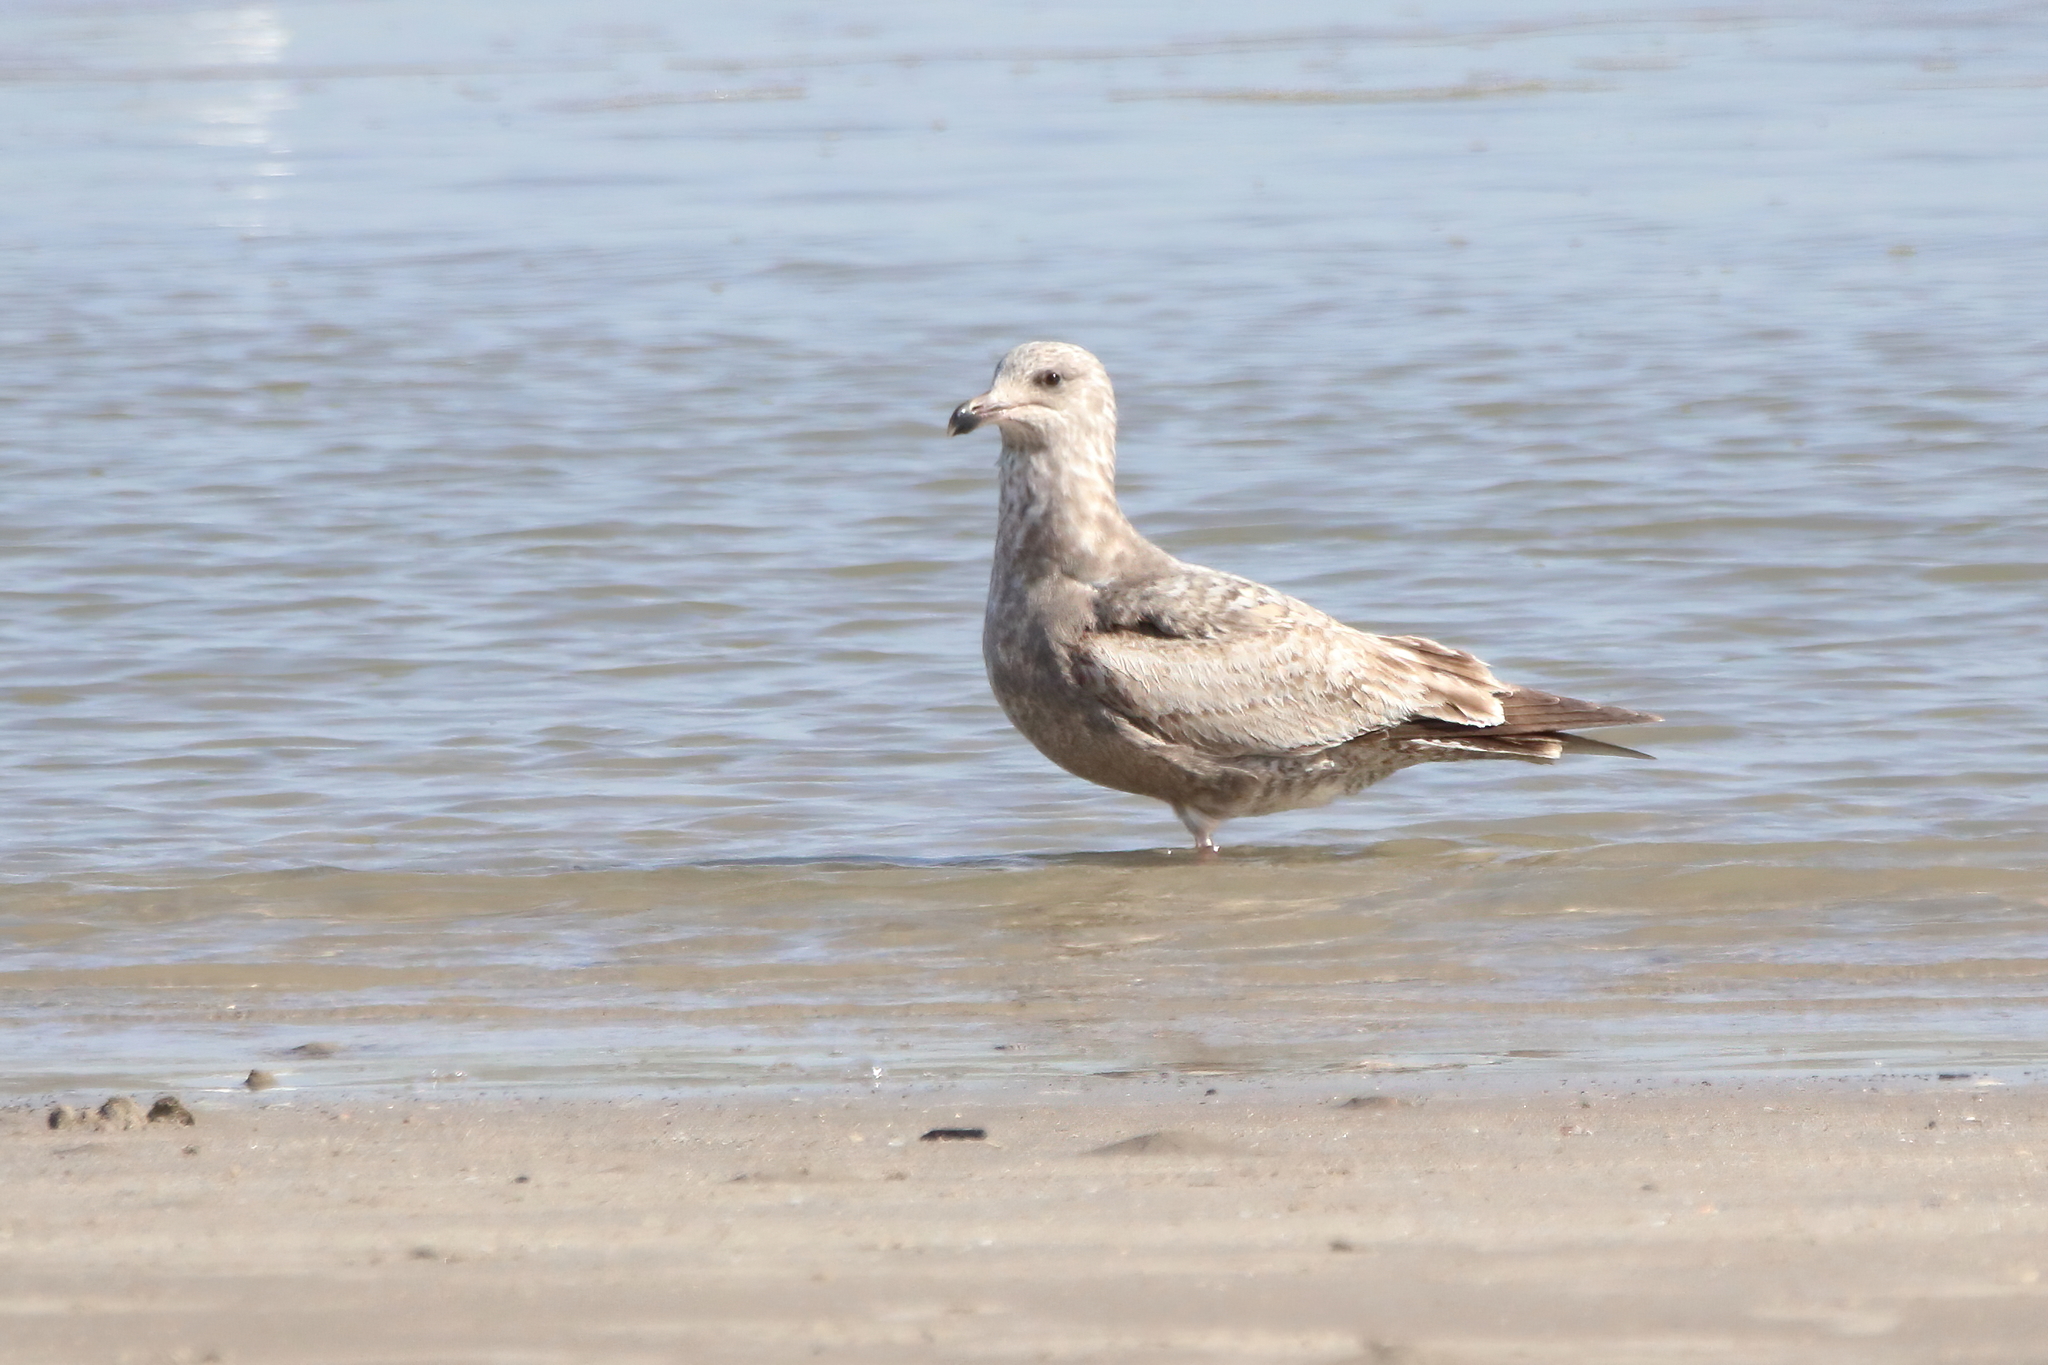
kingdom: Animalia
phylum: Chordata
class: Aves
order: Charadriiformes
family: Laridae
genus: Larus
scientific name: Larus argentatus
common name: Herring gull
